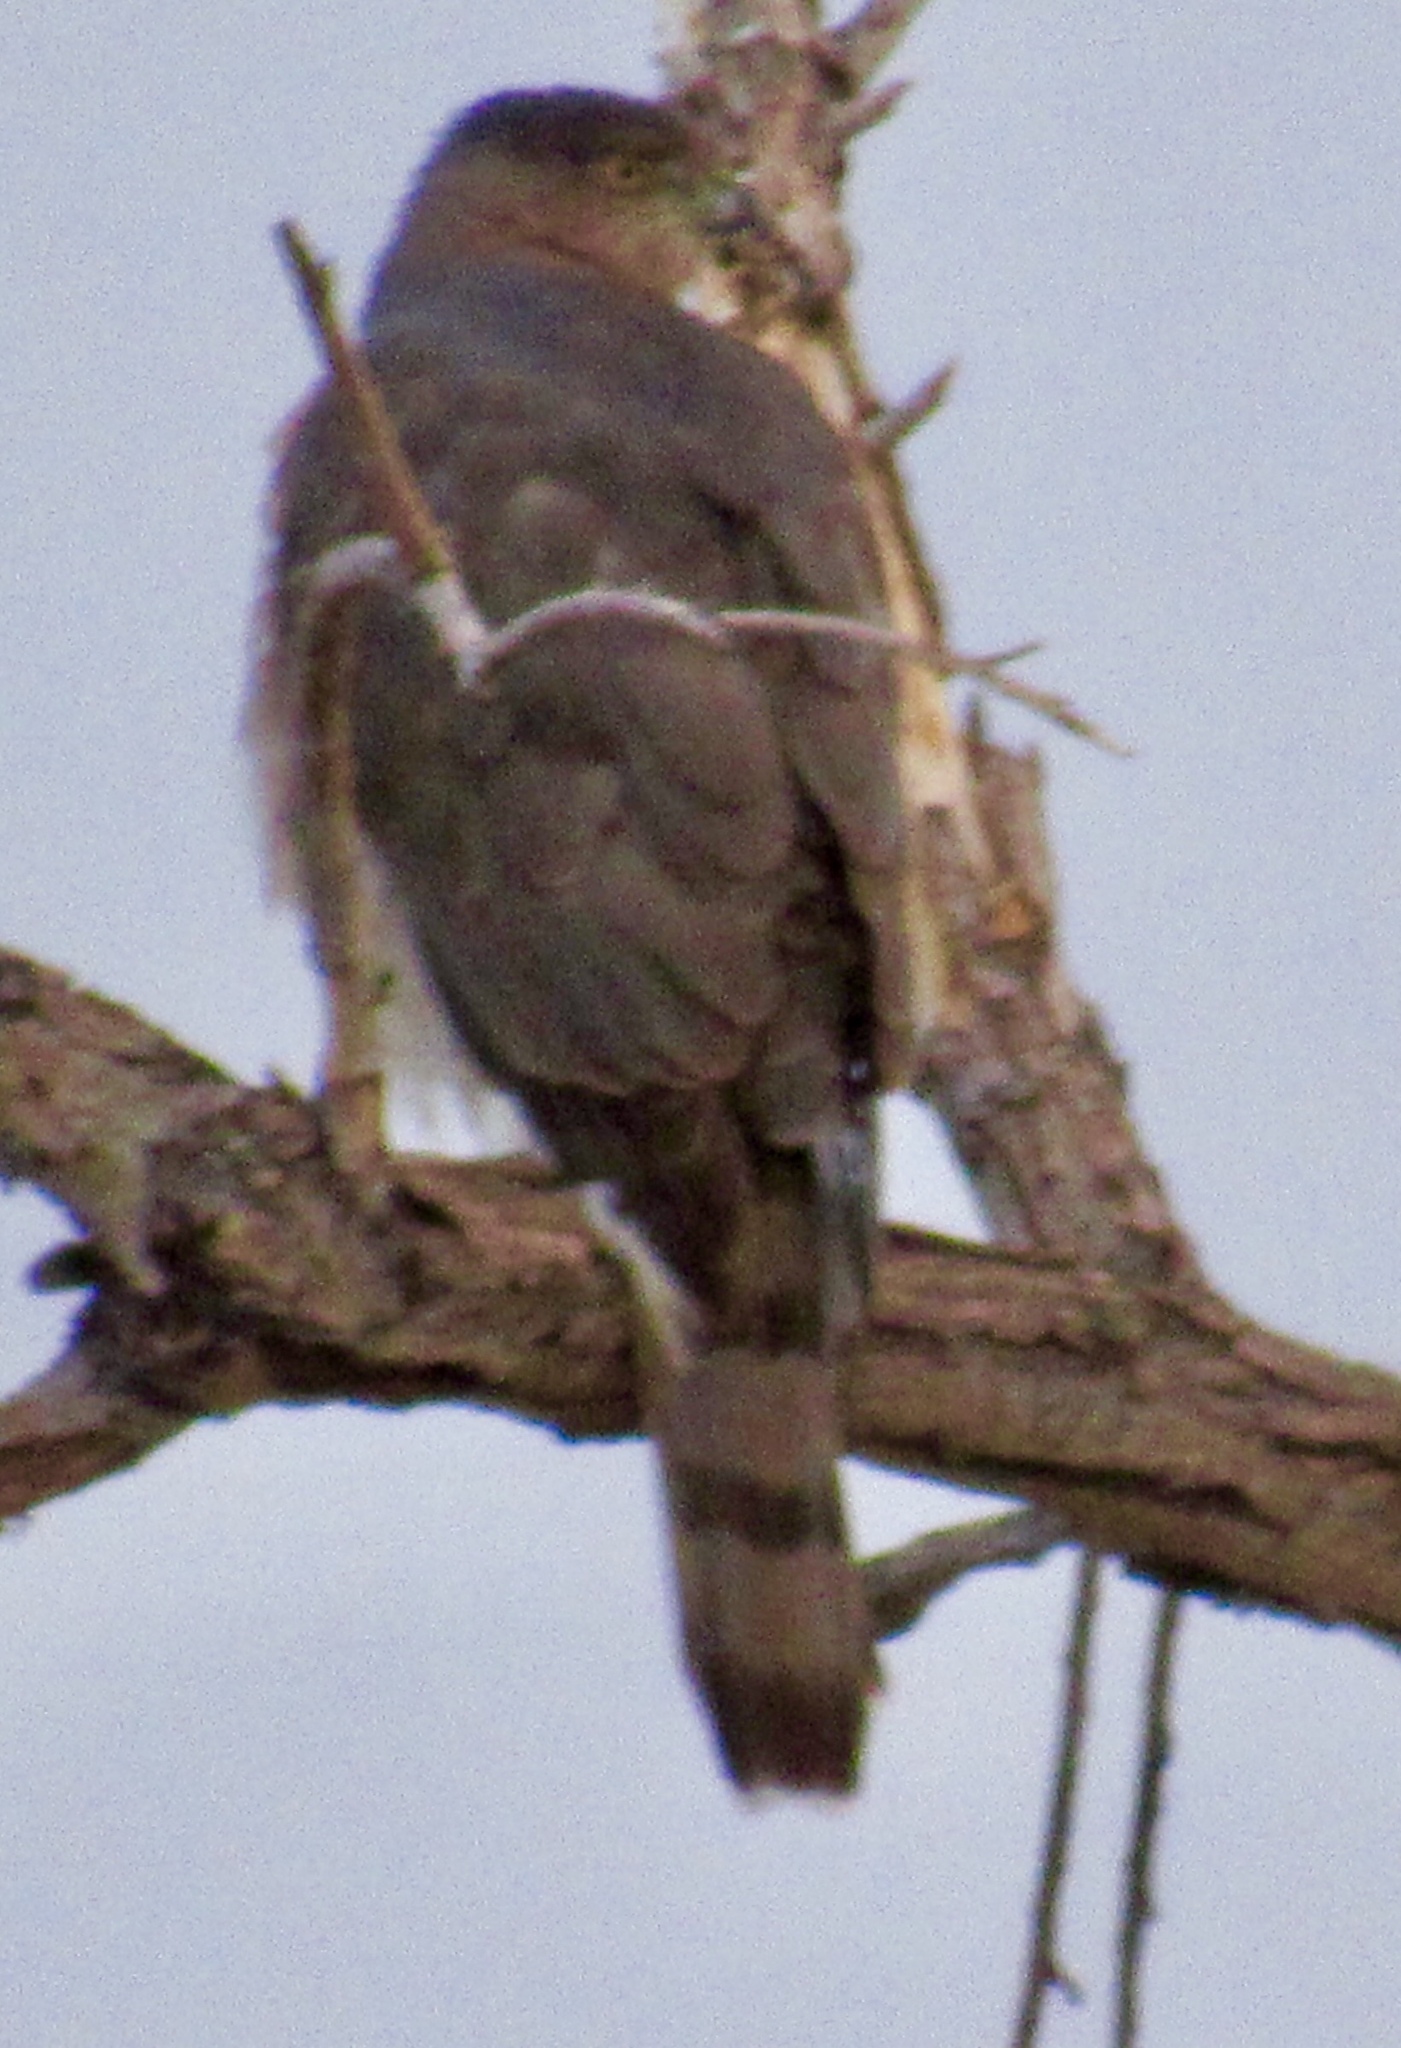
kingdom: Animalia
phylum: Chordata
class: Aves
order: Accipitriformes
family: Accipitridae
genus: Accipiter
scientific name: Accipiter cooperii
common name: Cooper's hawk
